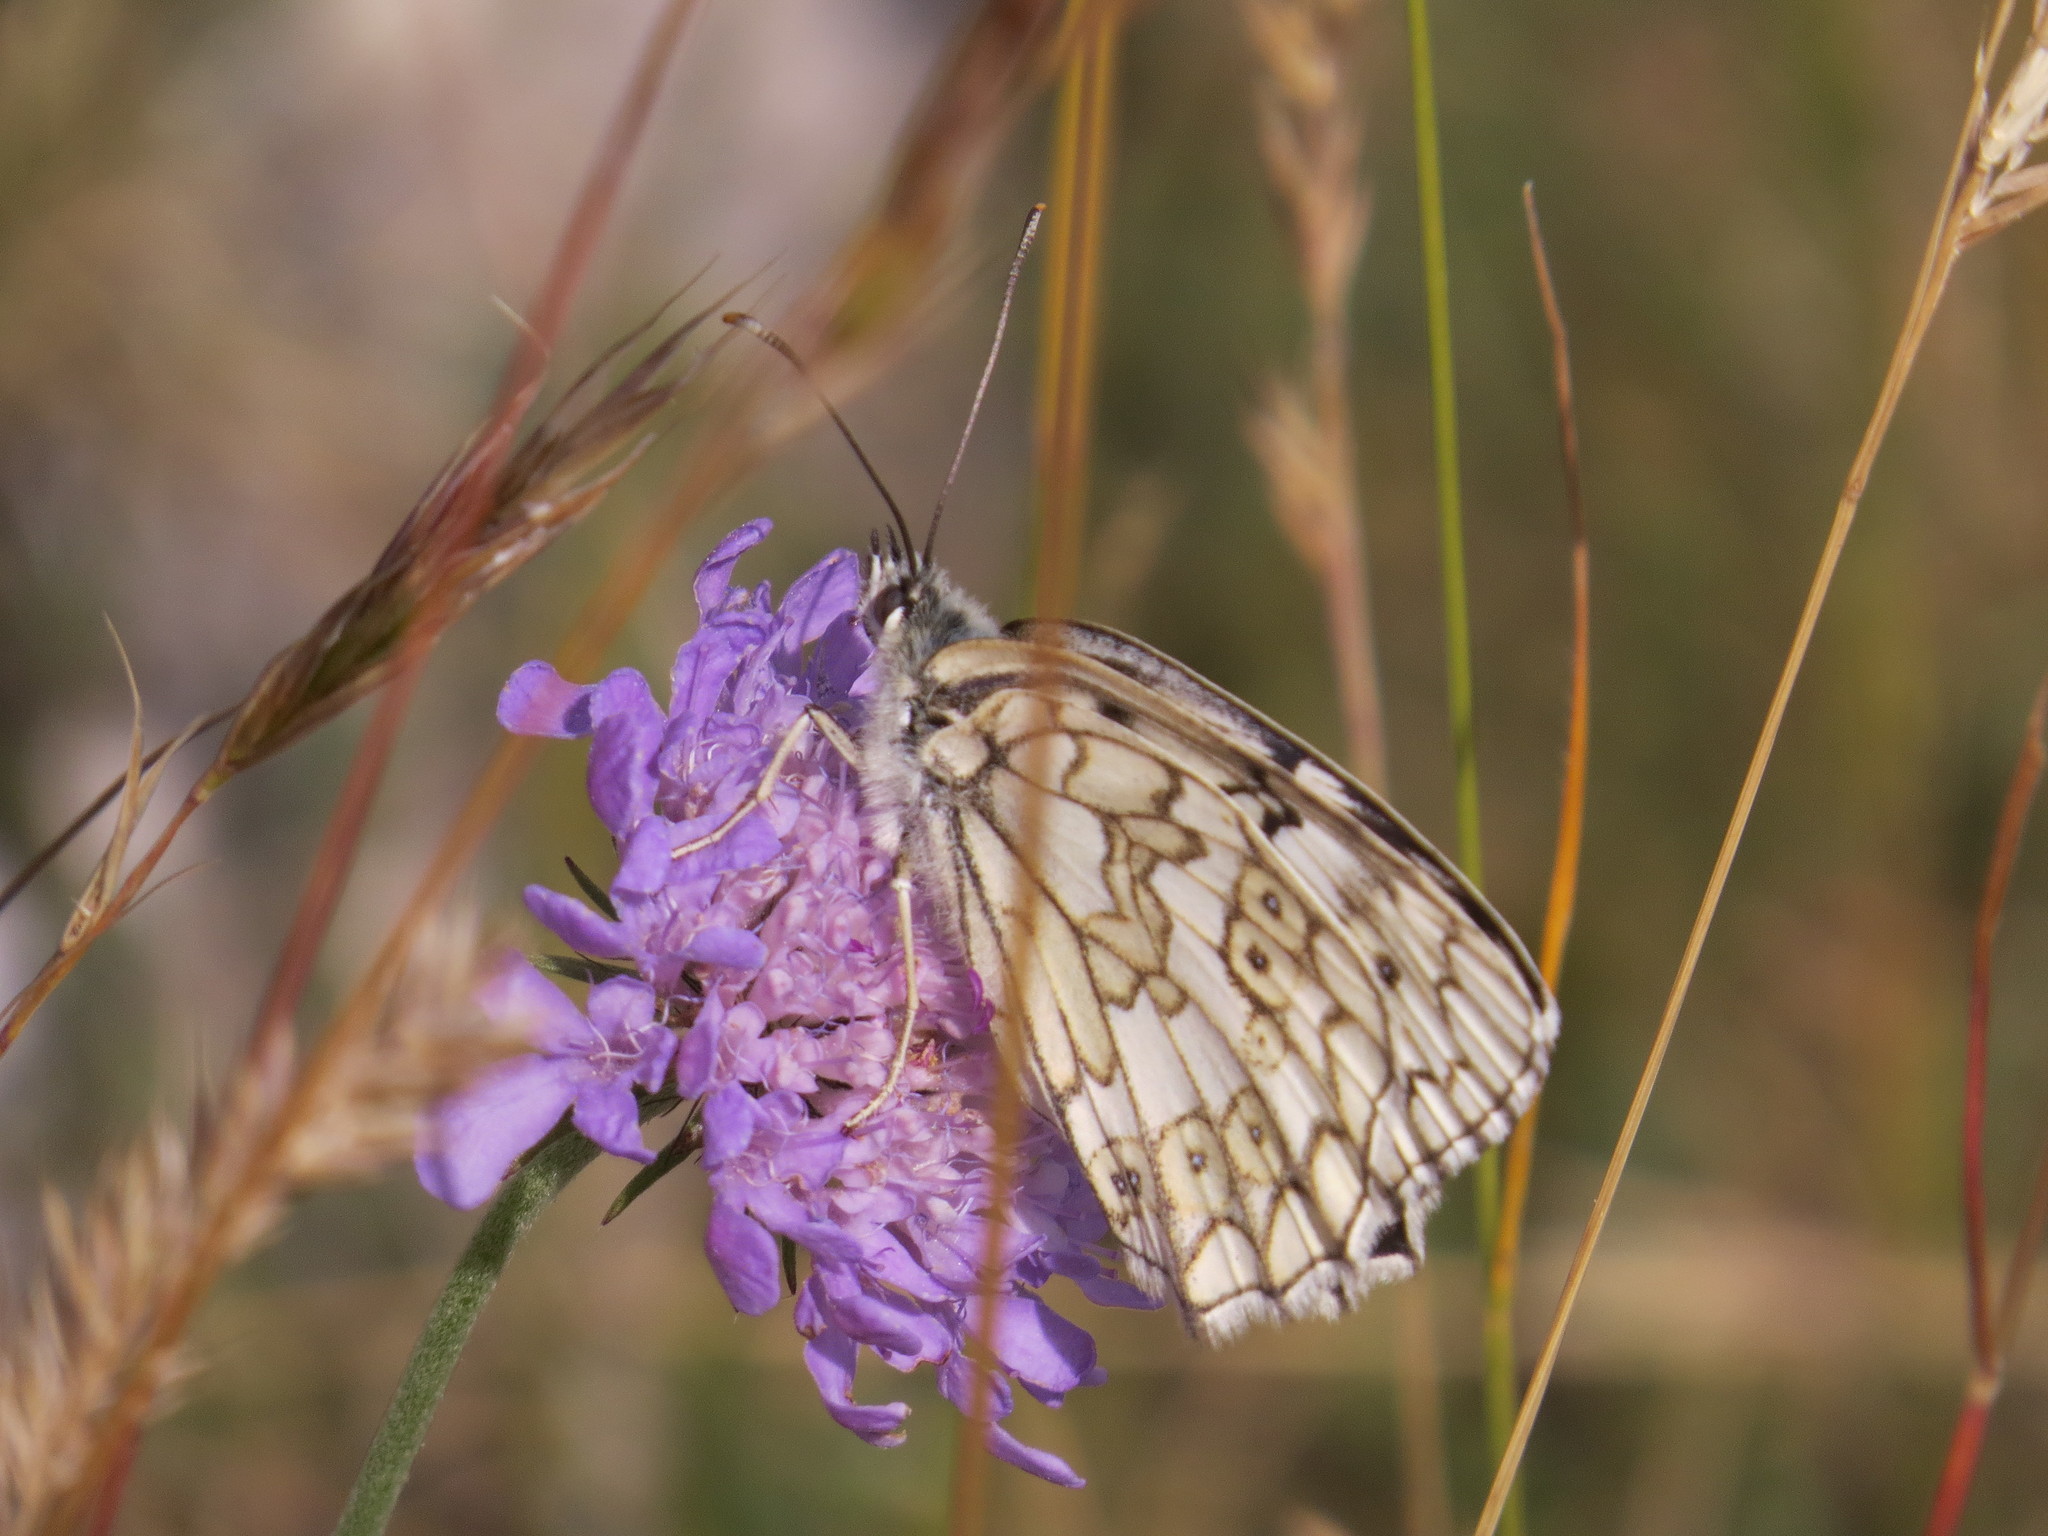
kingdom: Animalia
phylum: Arthropoda
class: Insecta
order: Lepidoptera
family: Nymphalidae
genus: Melanargia
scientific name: Melanargia japygia
